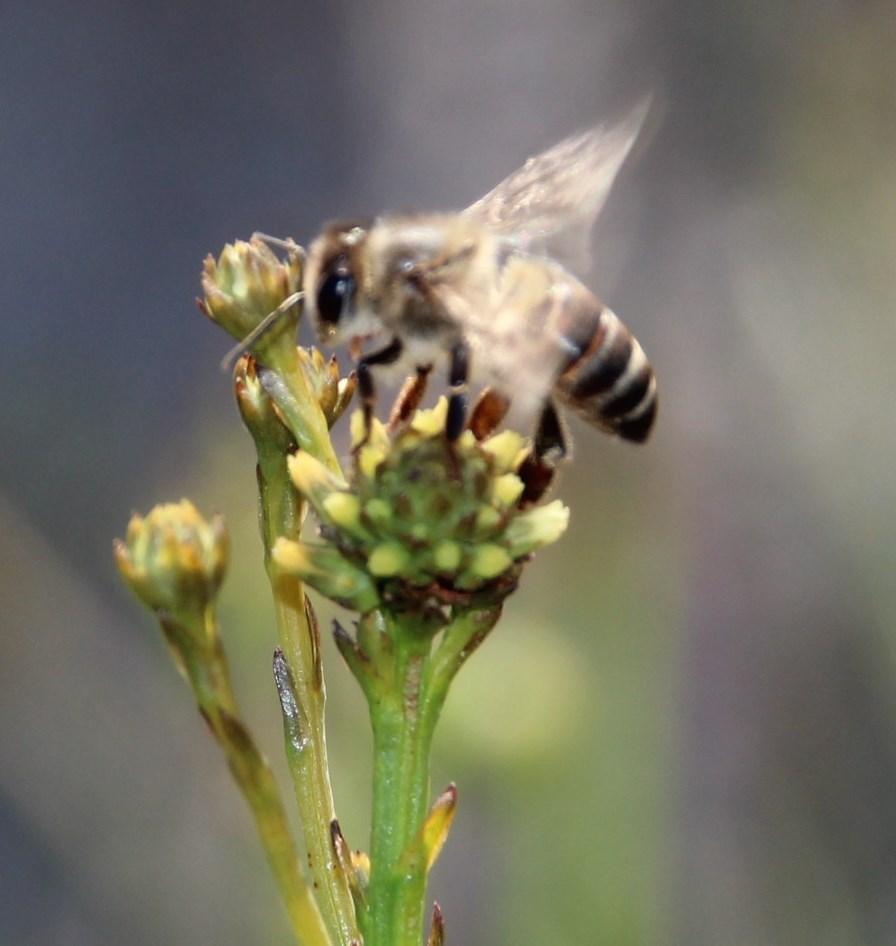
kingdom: Plantae
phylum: Tracheophyta
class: Magnoliopsida
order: Santalales
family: Thesiaceae
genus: Thesium
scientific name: Thesium aggregatum
